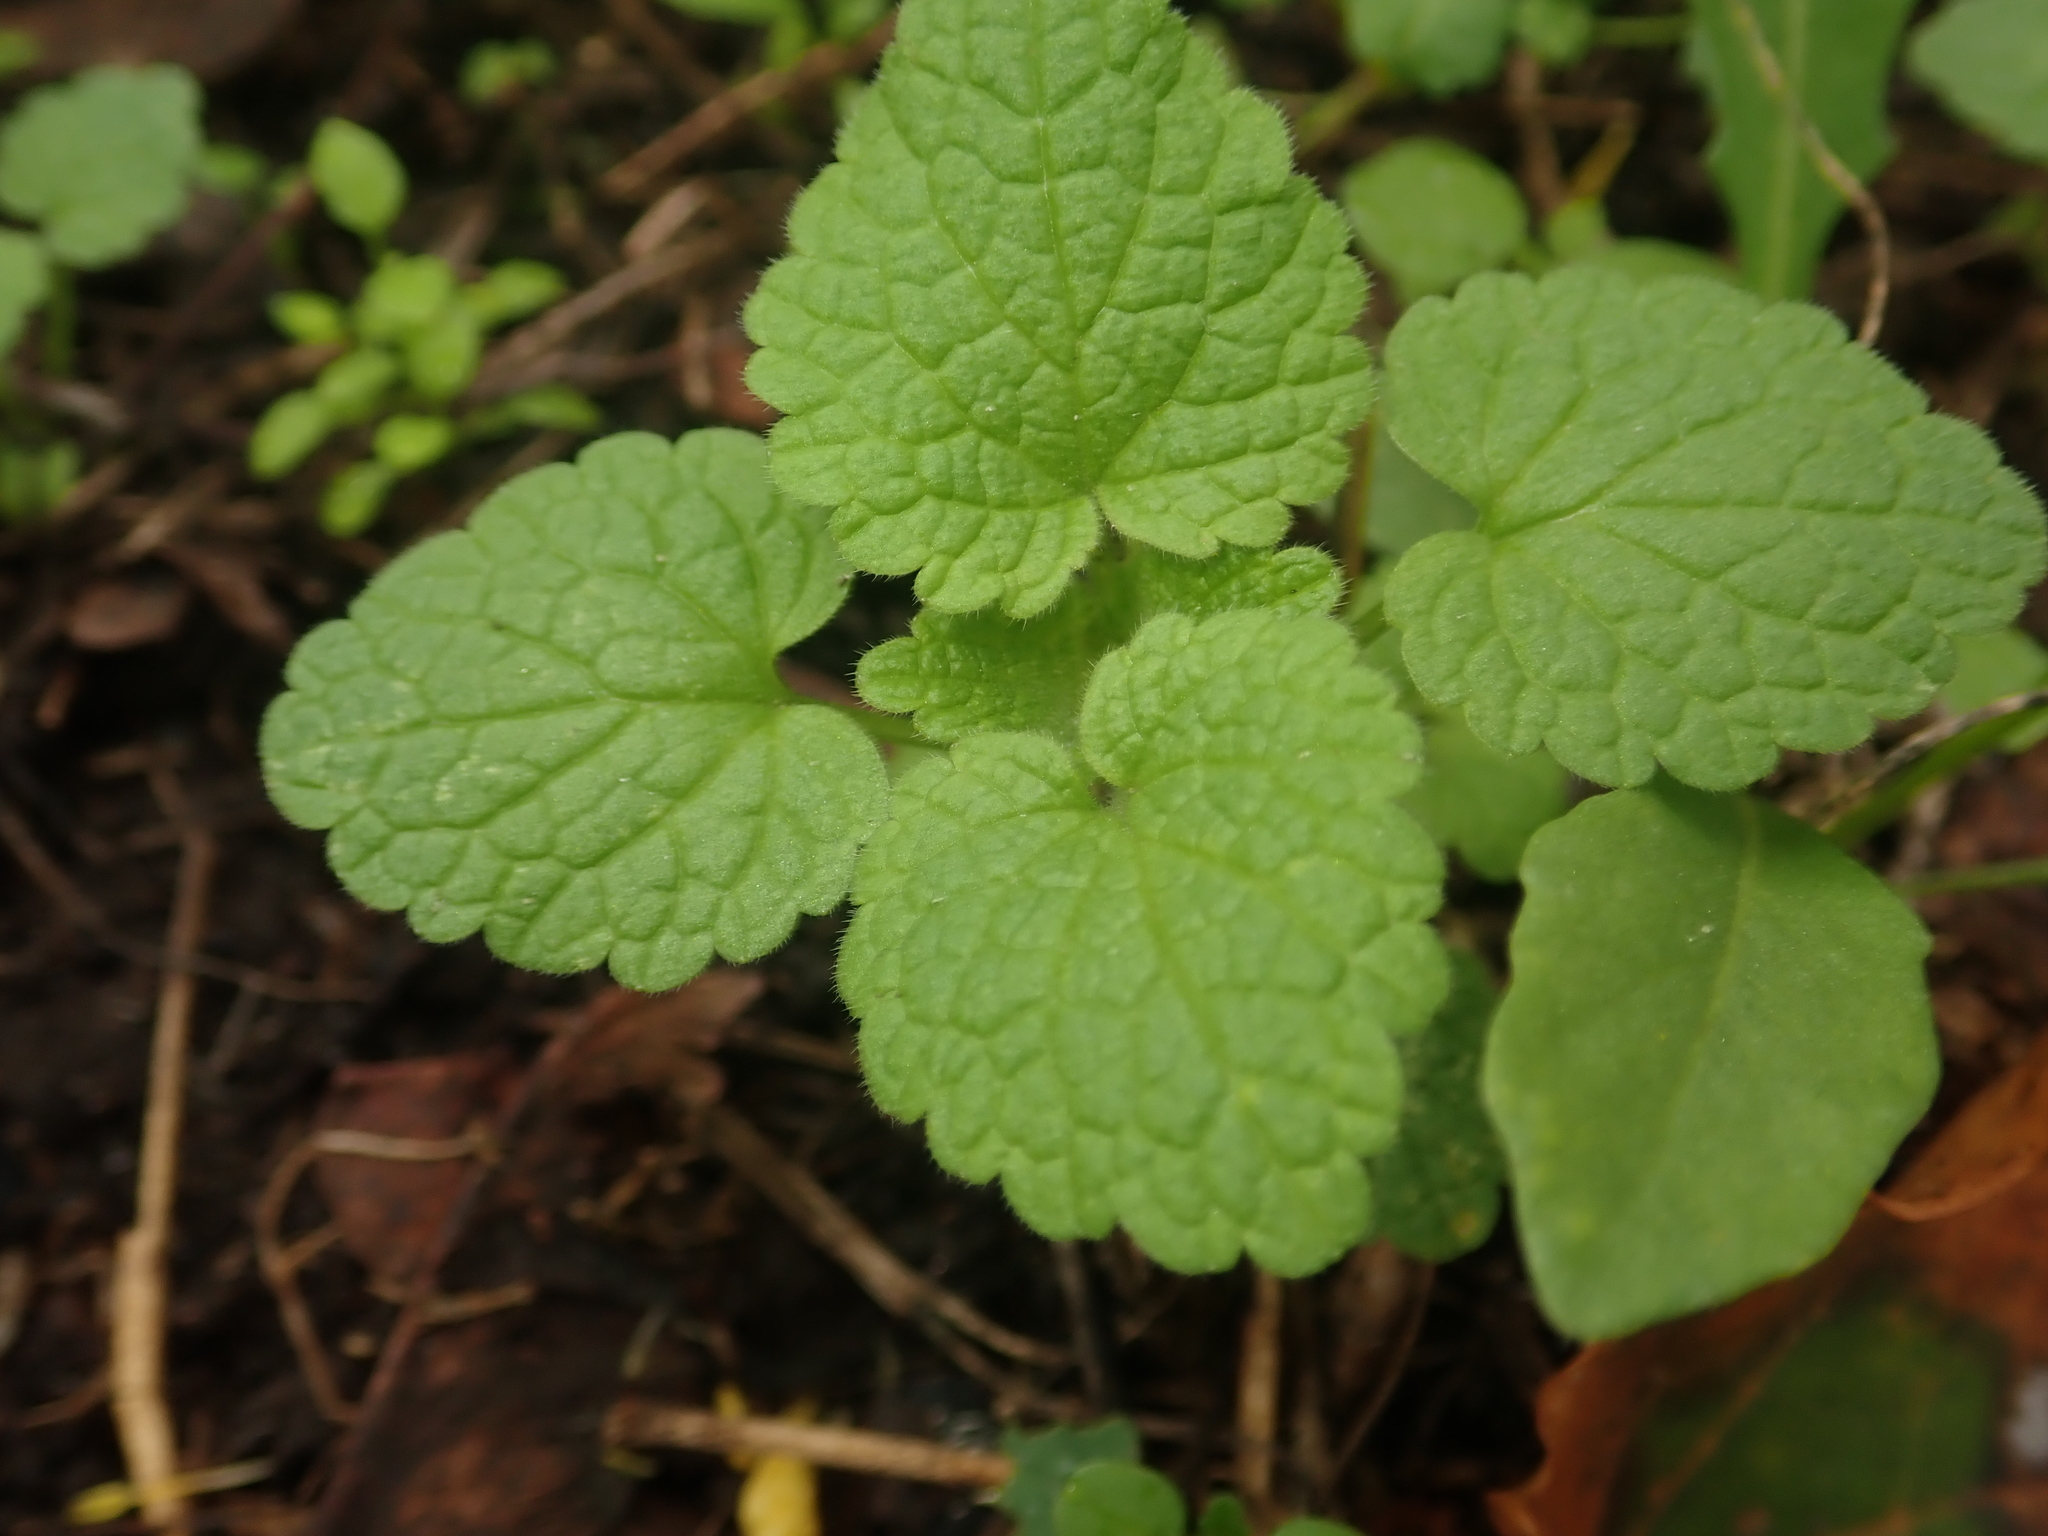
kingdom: Plantae
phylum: Tracheophyta
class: Magnoliopsida
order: Lamiales
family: Lamiaceae
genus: Lamium
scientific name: Lamium purpureum
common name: Red dead-nettle
